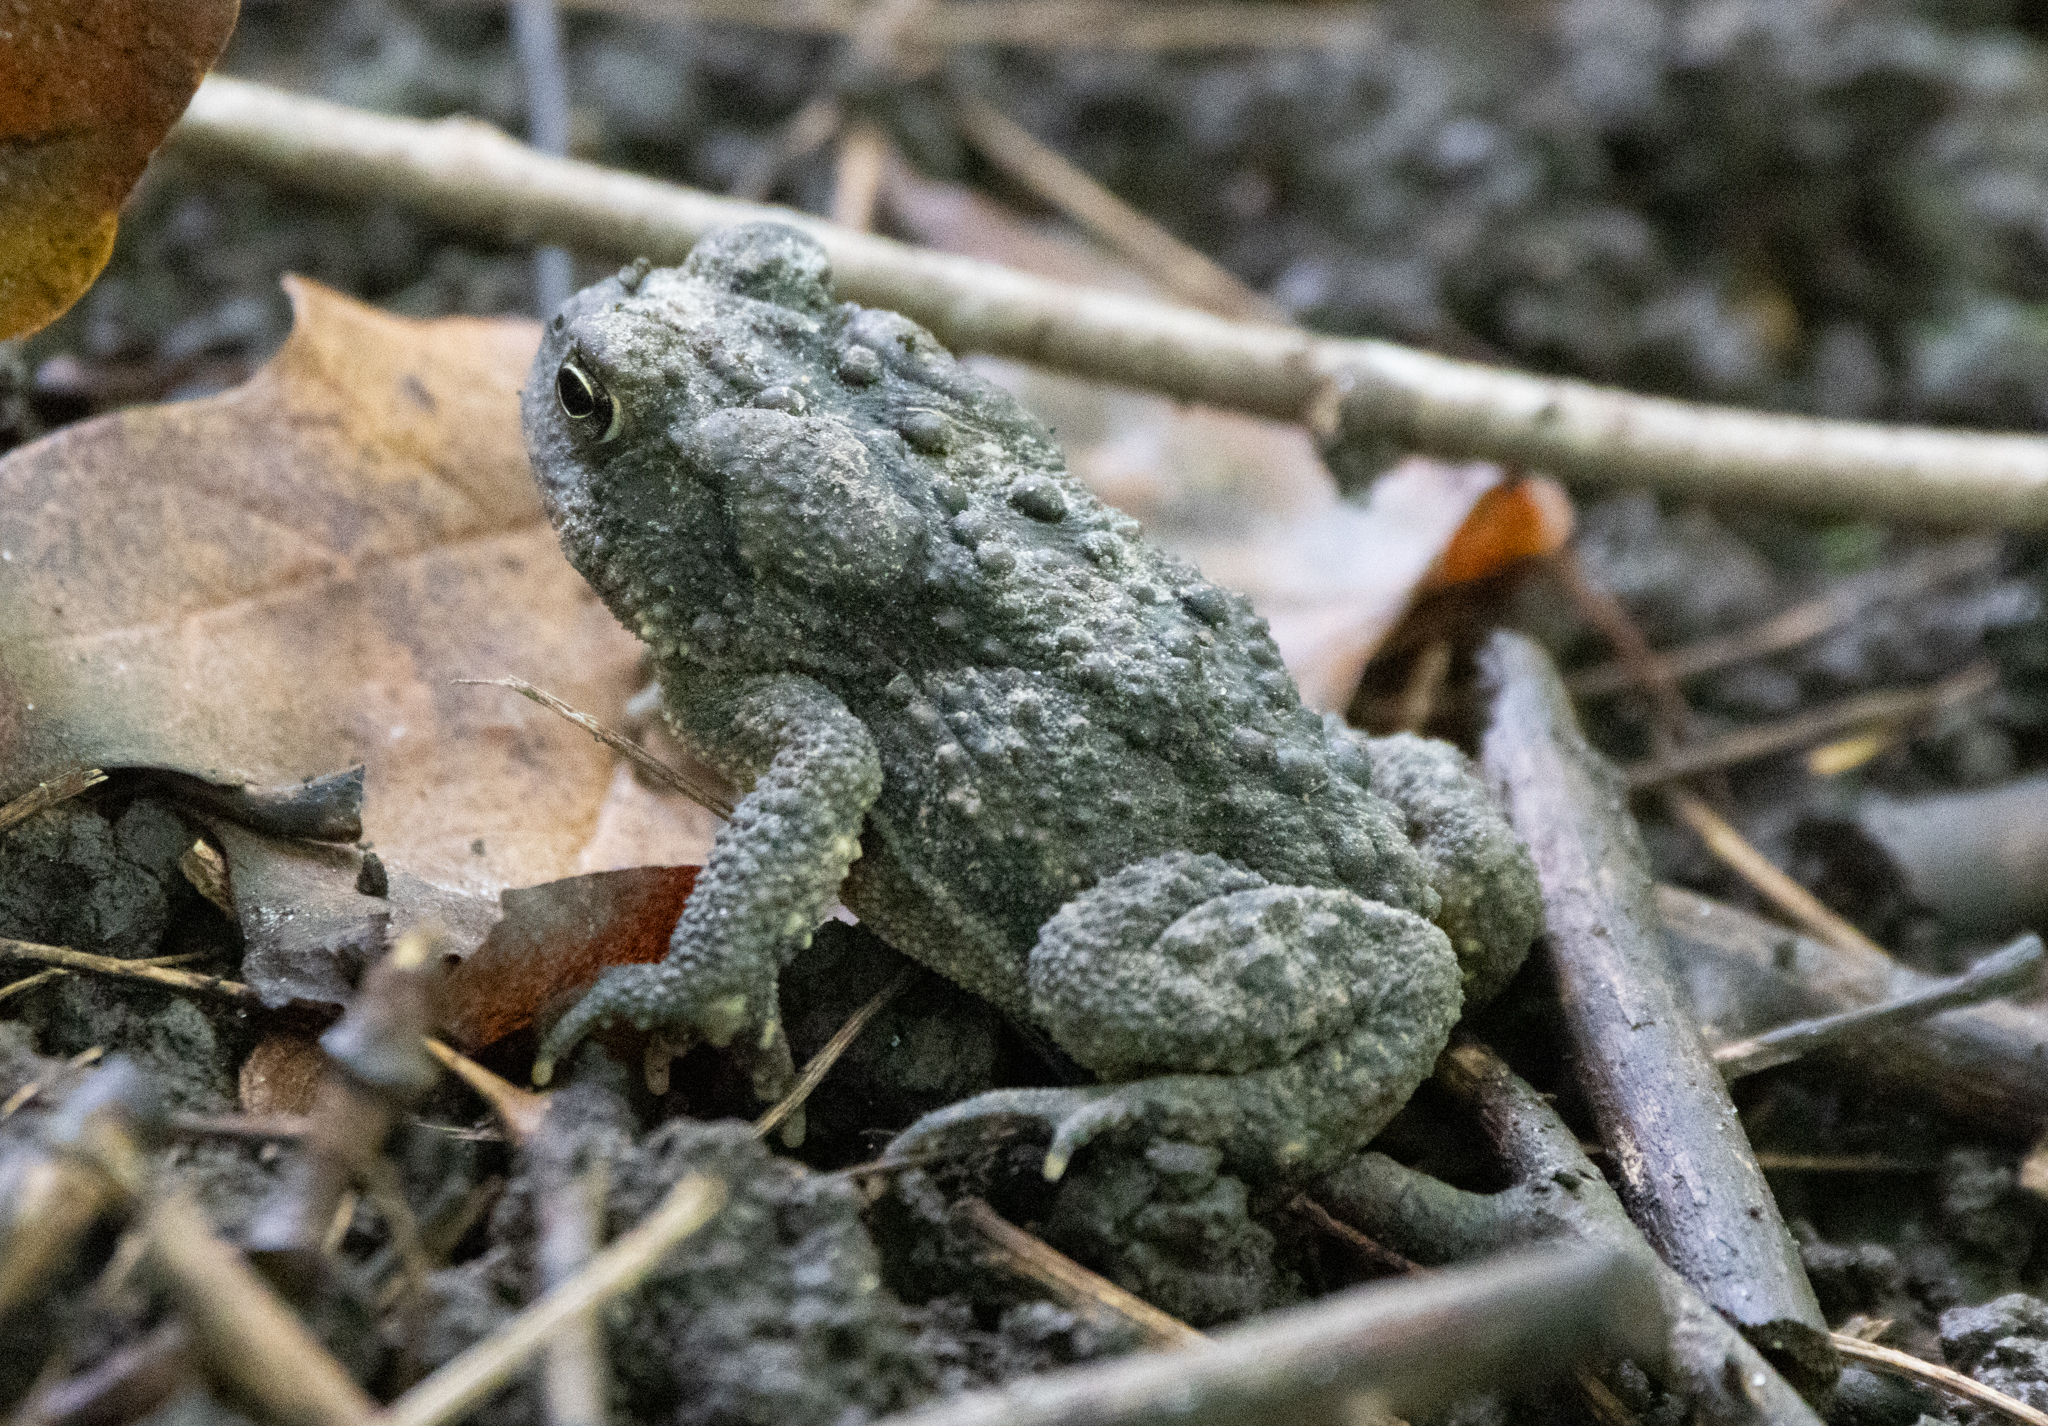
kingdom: Animalia
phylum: Chordata
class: Amphibia
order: Anura
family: Bufonidae
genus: Anaxyrus
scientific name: Anaxyrus americanus
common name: American toad
